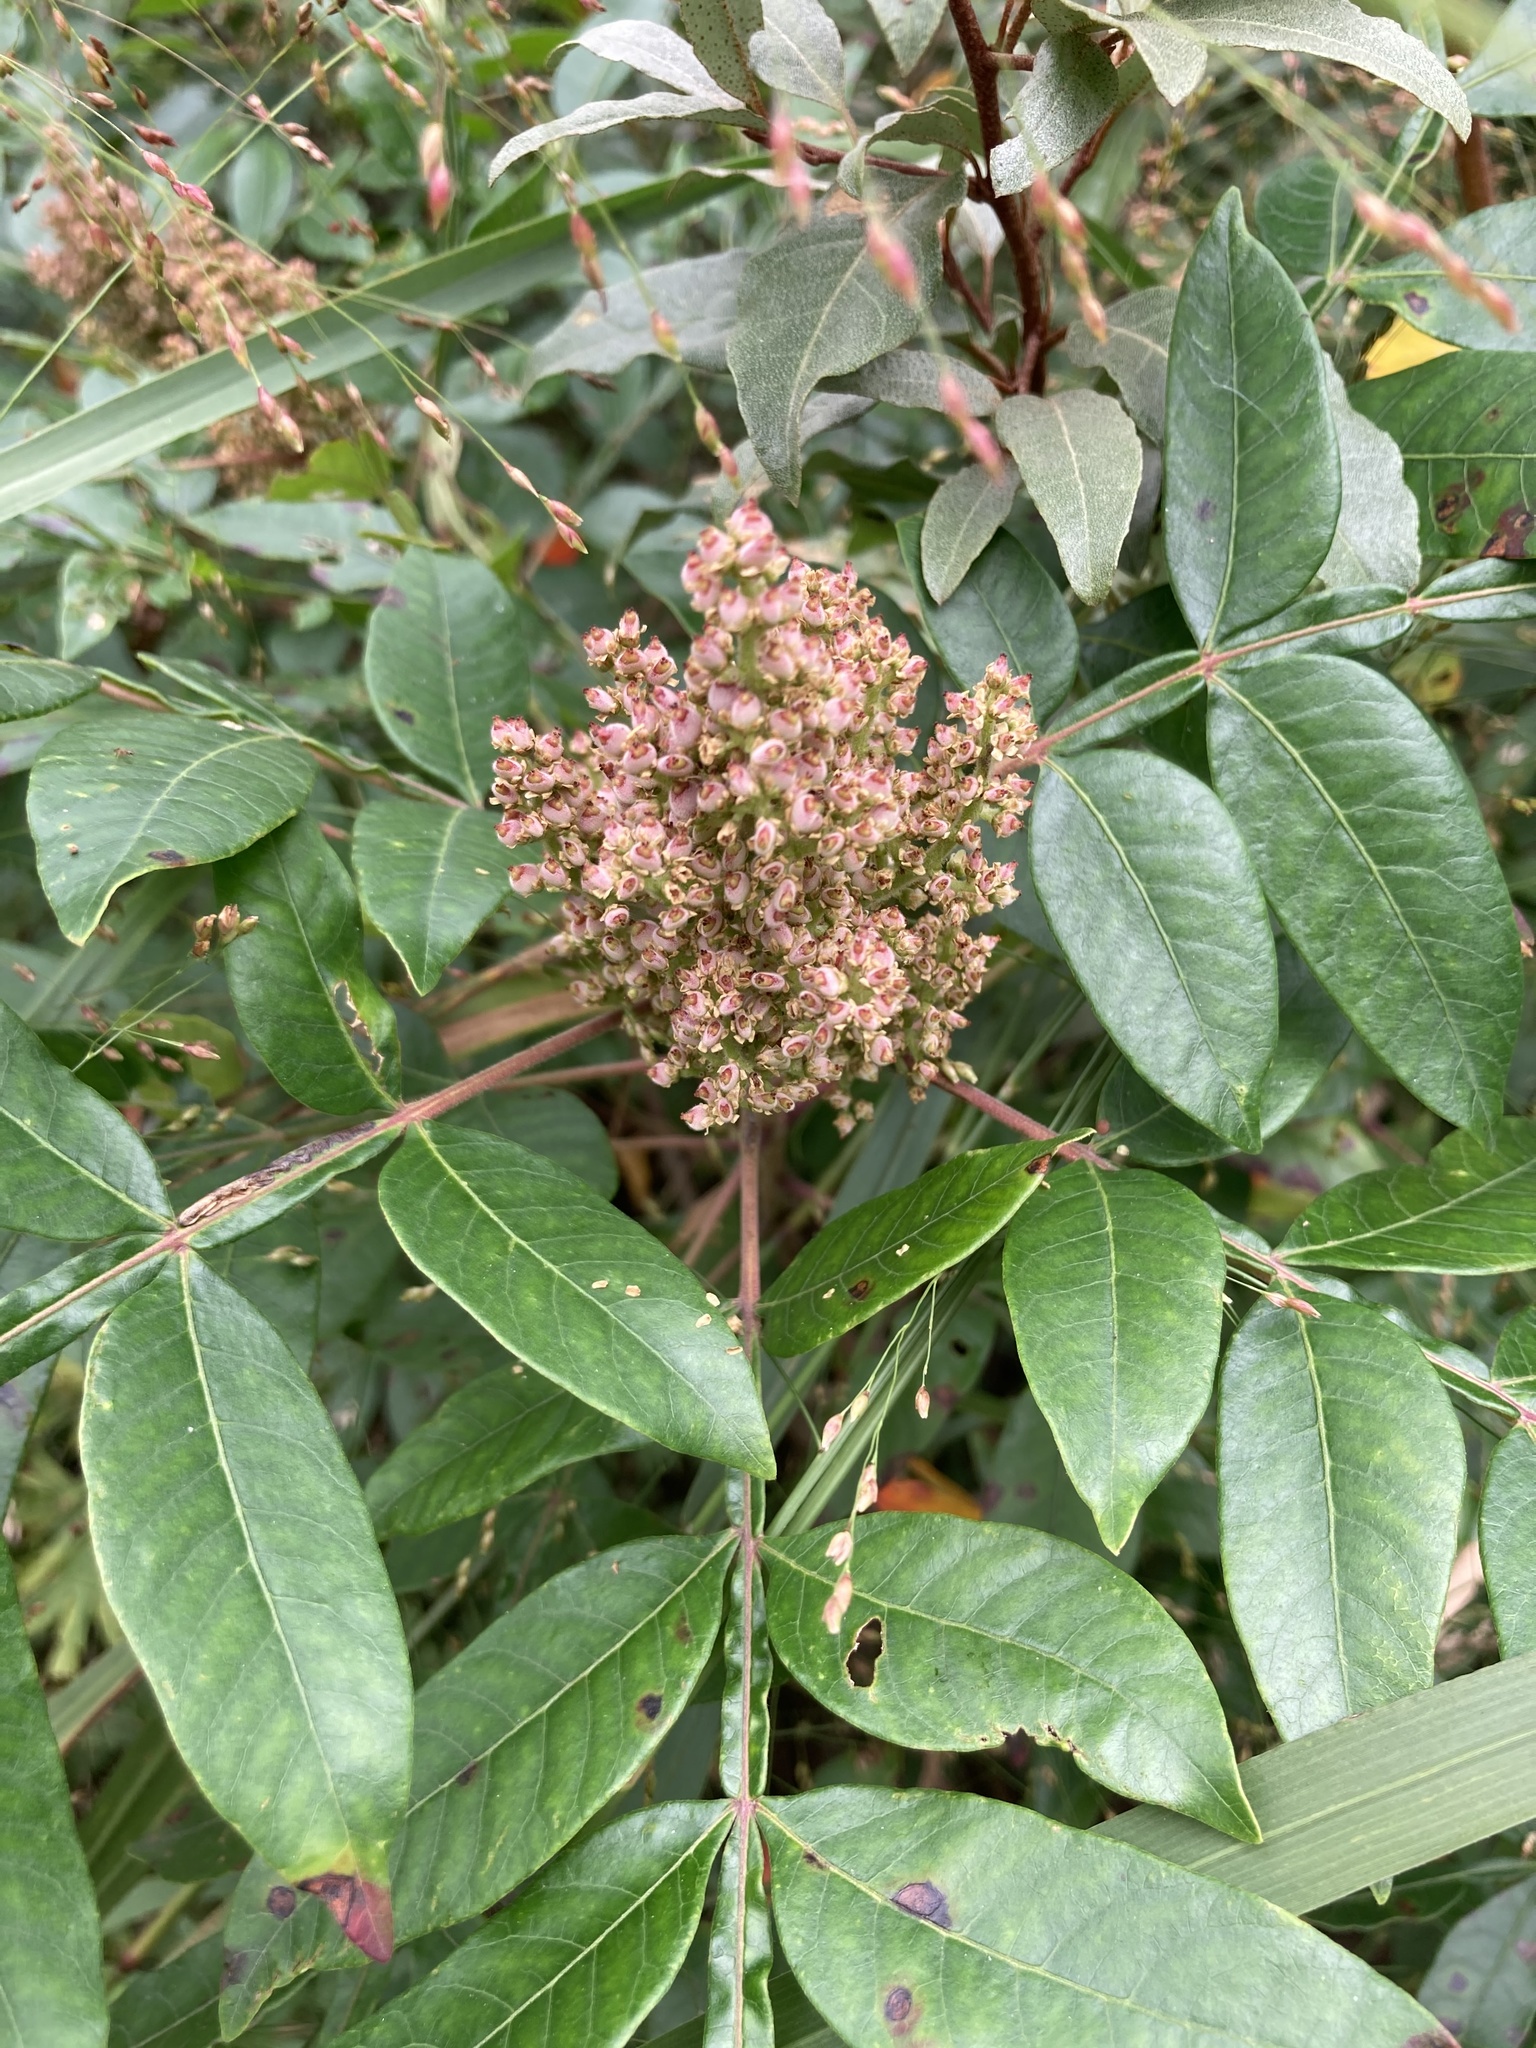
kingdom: Plantae
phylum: Tracheophyta
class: Magnoliopsida
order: Sapindales
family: Anacardiaceae
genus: Rhus
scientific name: Rhus copallina
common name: Shining sumac
